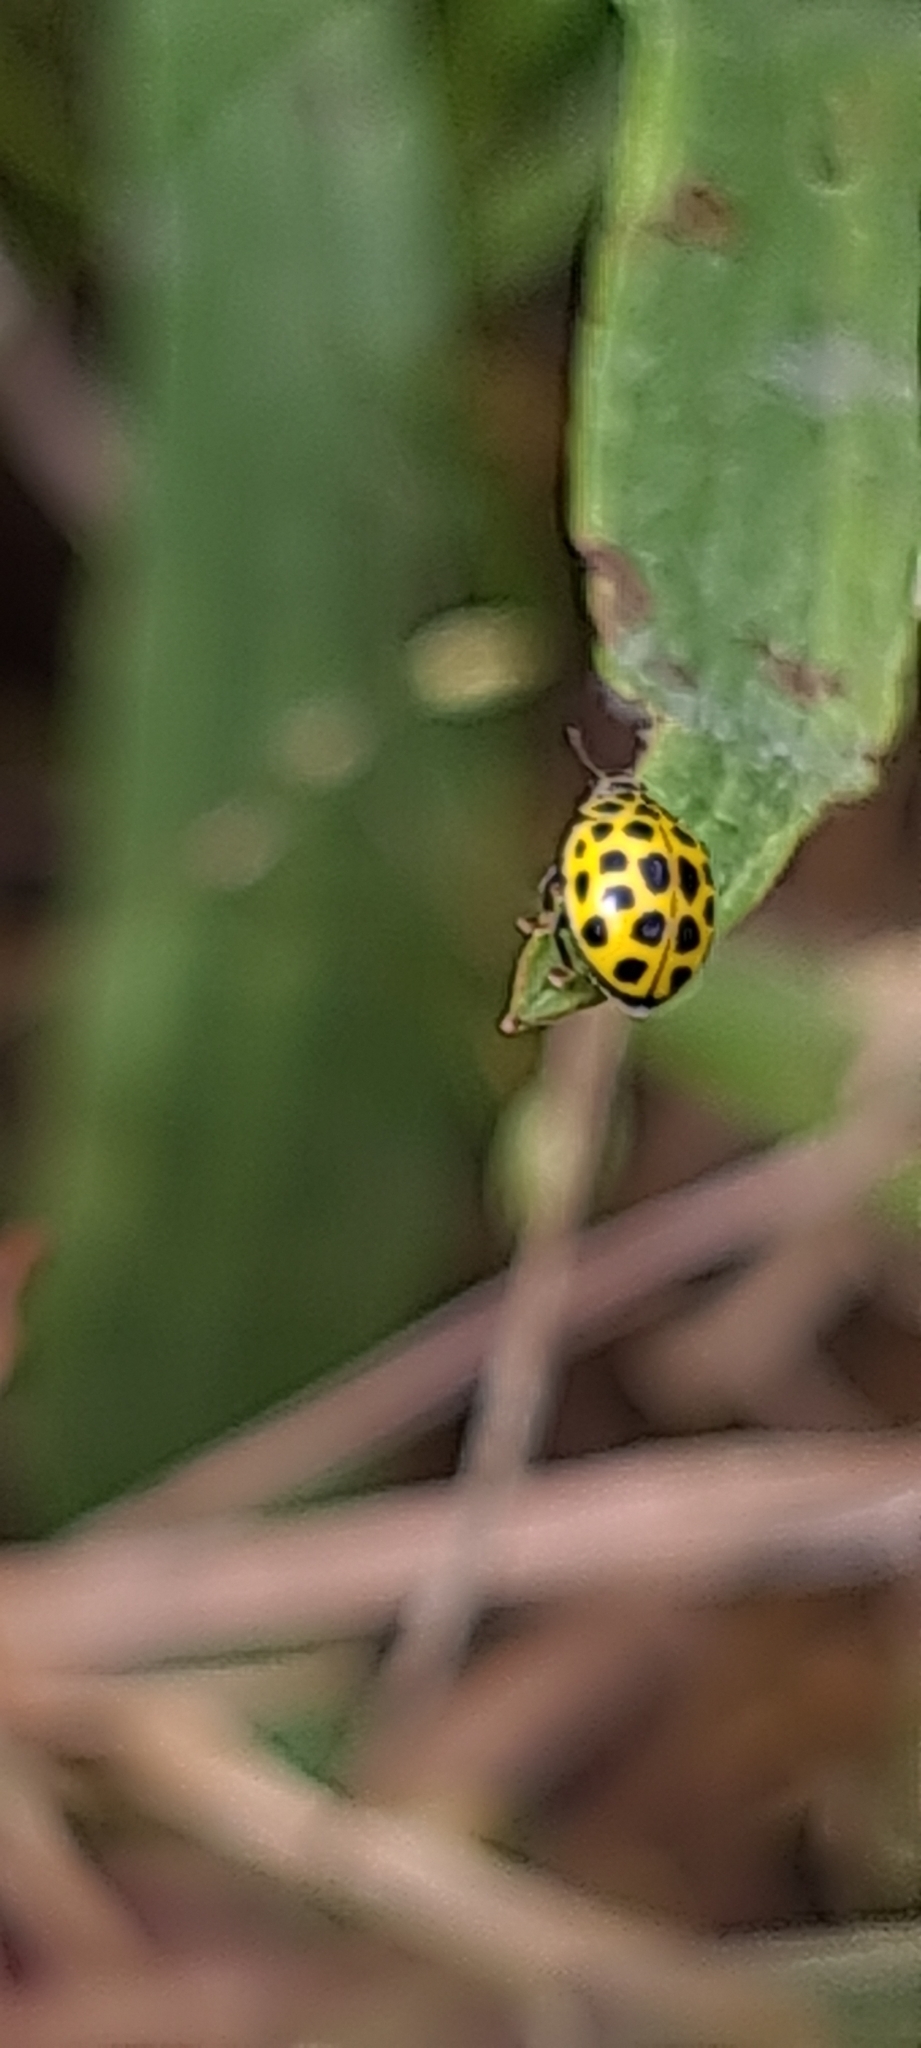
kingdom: Animalia
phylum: Arthropoda
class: Insecta
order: Coleoptera
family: Coccinellidae
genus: Psyllobora
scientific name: Psyllobora vigintiduopunctata
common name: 22-spot ladybird
